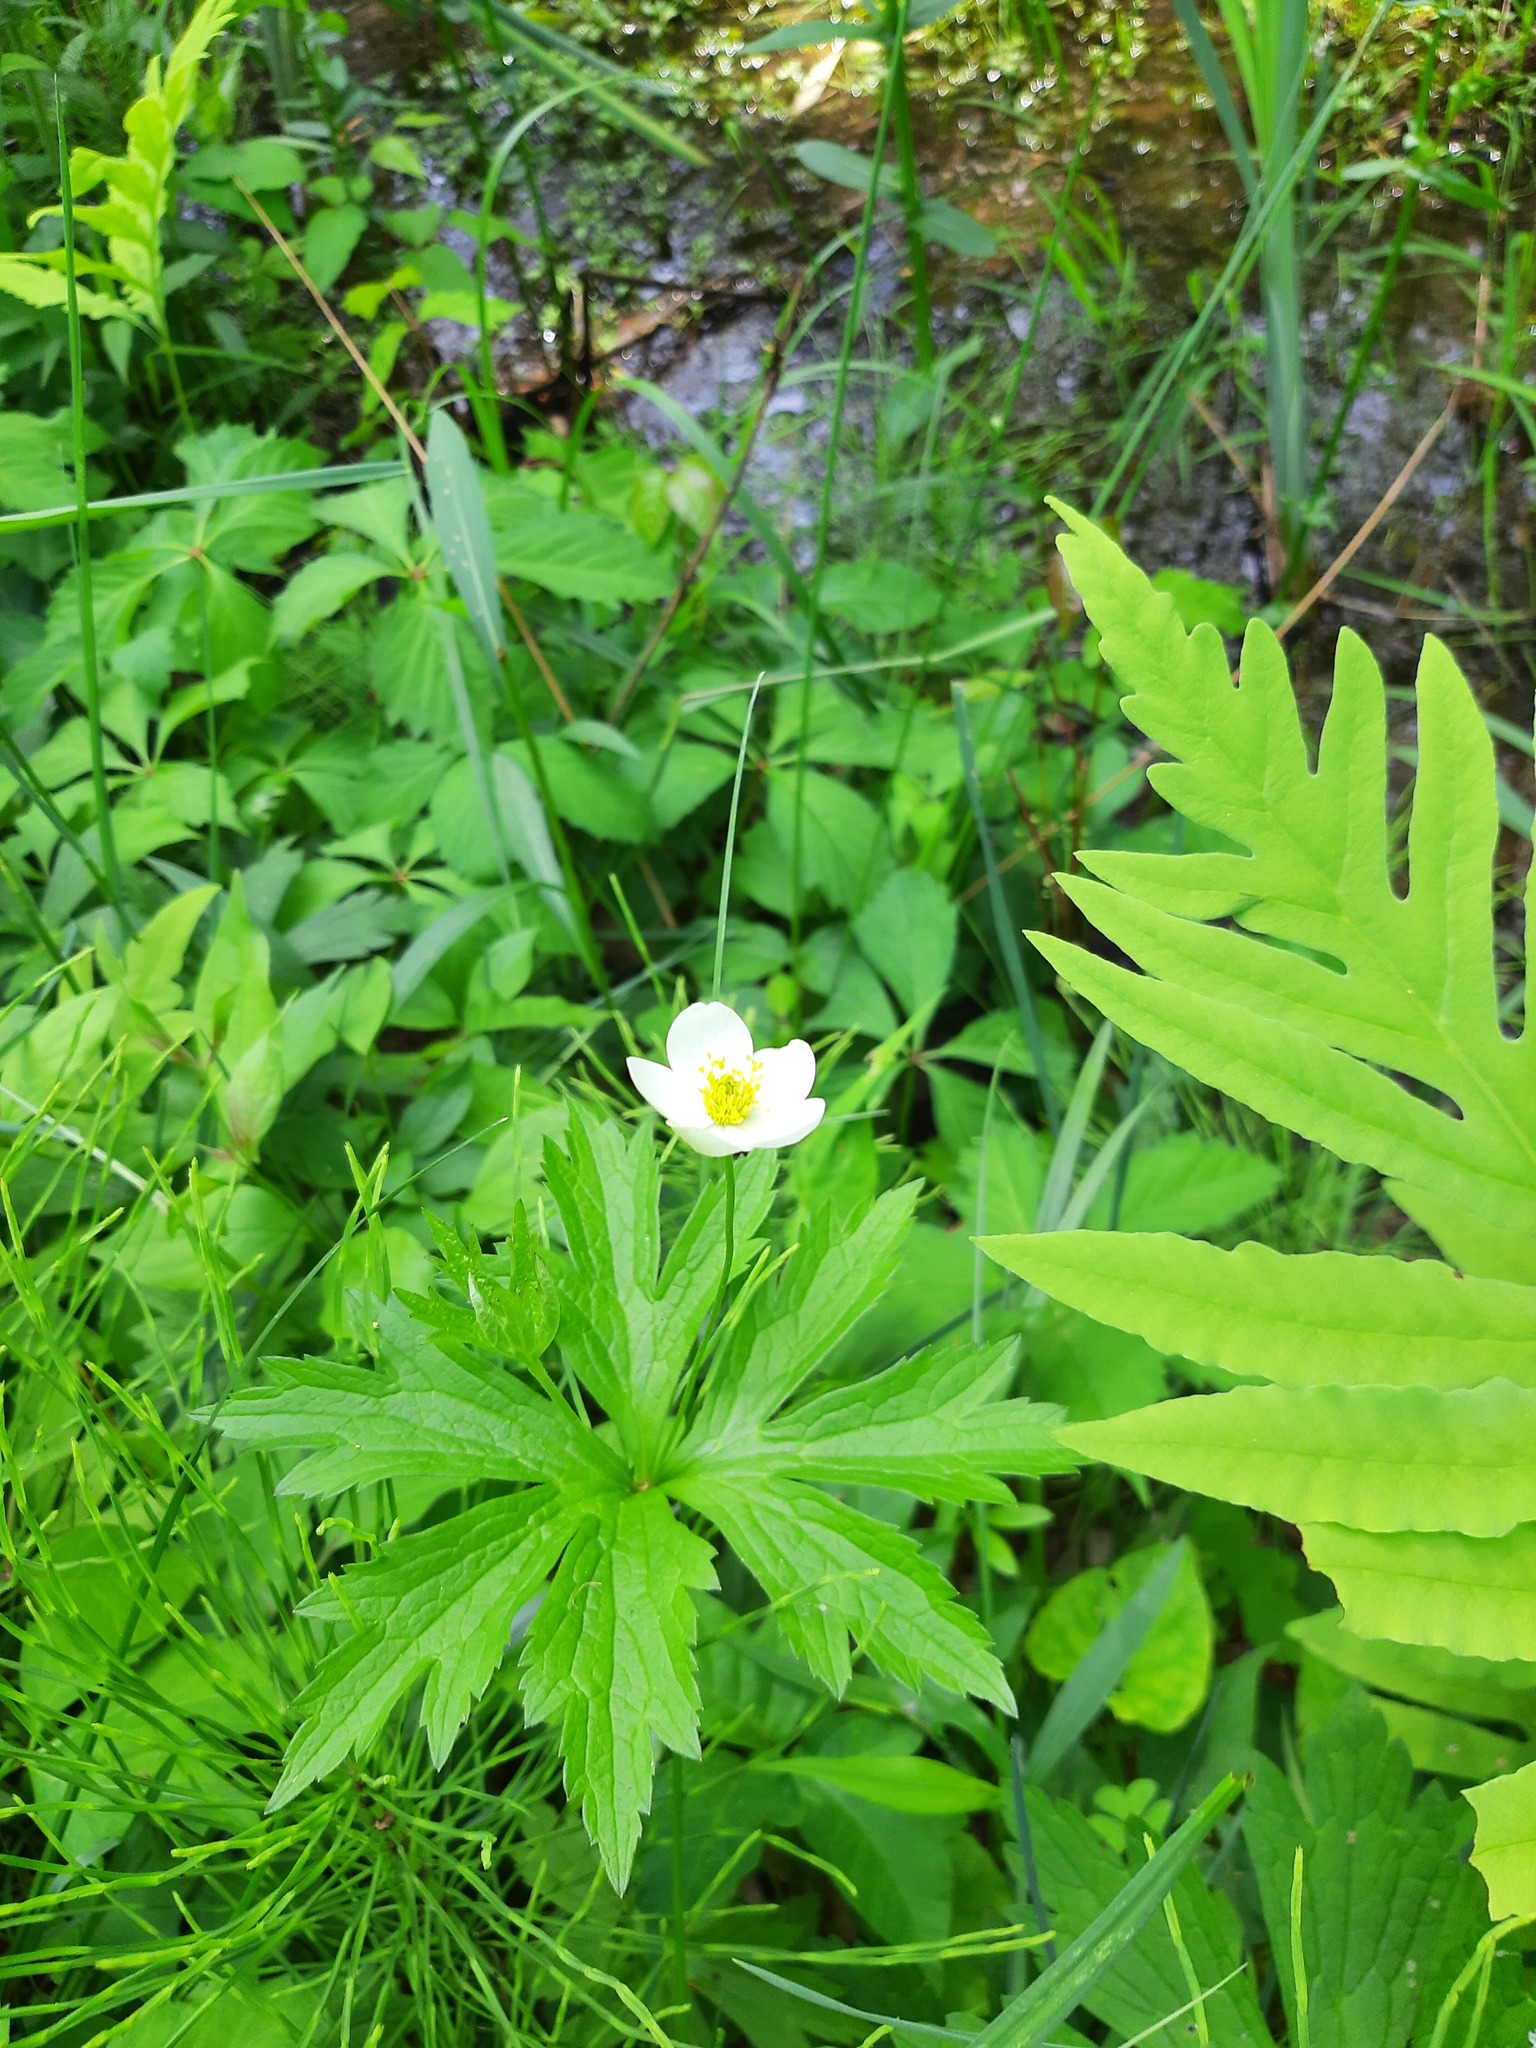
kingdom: Plantae
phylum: Tracheophyta
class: Magnoliopsida
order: Ranunculales
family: Ranunculaceae
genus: Anemonastrum
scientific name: Anemonastrum canadense
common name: Canada anemone
